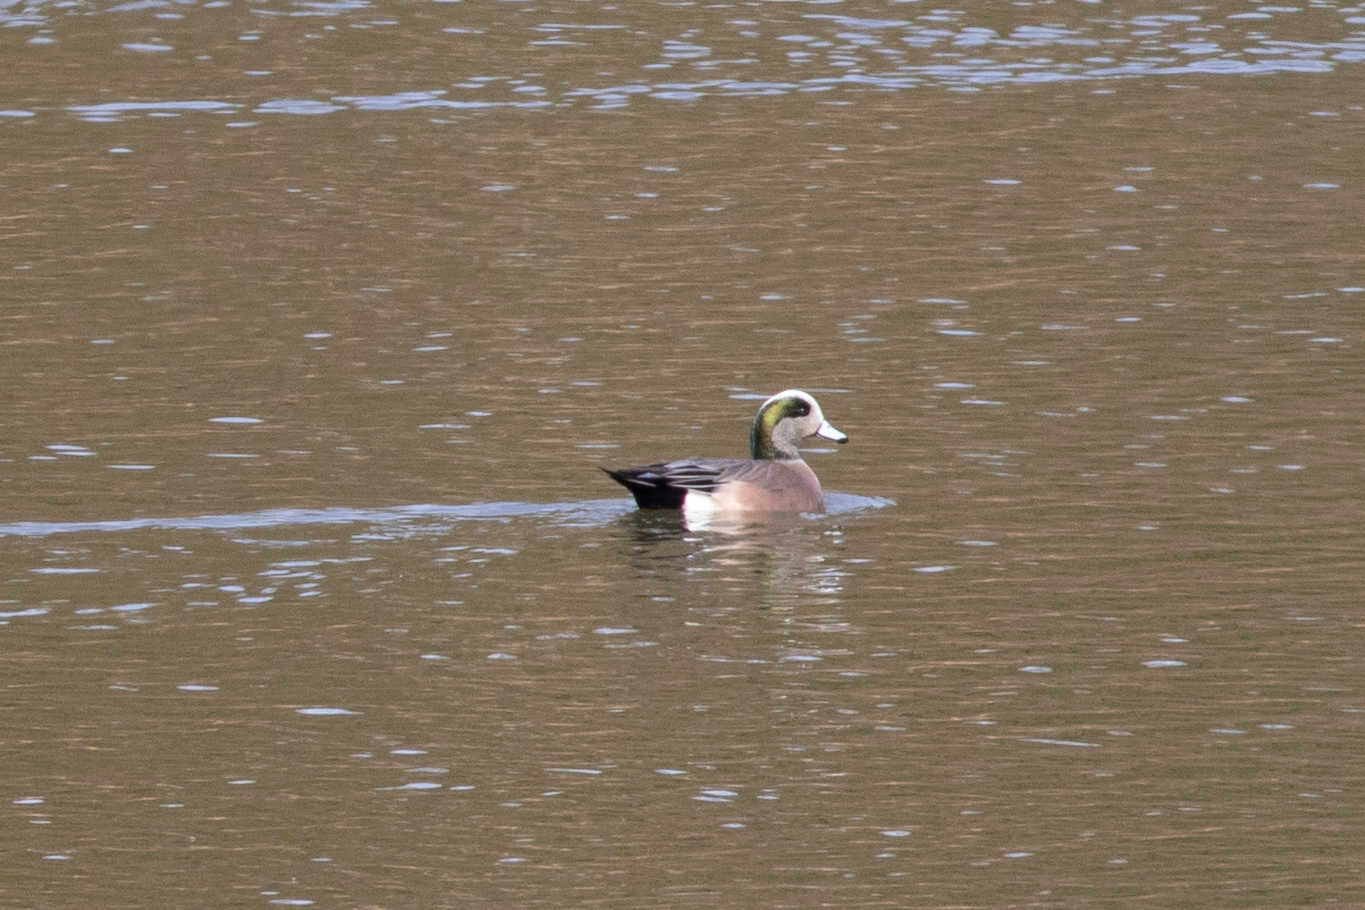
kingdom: Animalia
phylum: Chordata
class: Aves
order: Anseriformes
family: Anatidae
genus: Mareca
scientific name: Mareca americana
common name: American wigeon
